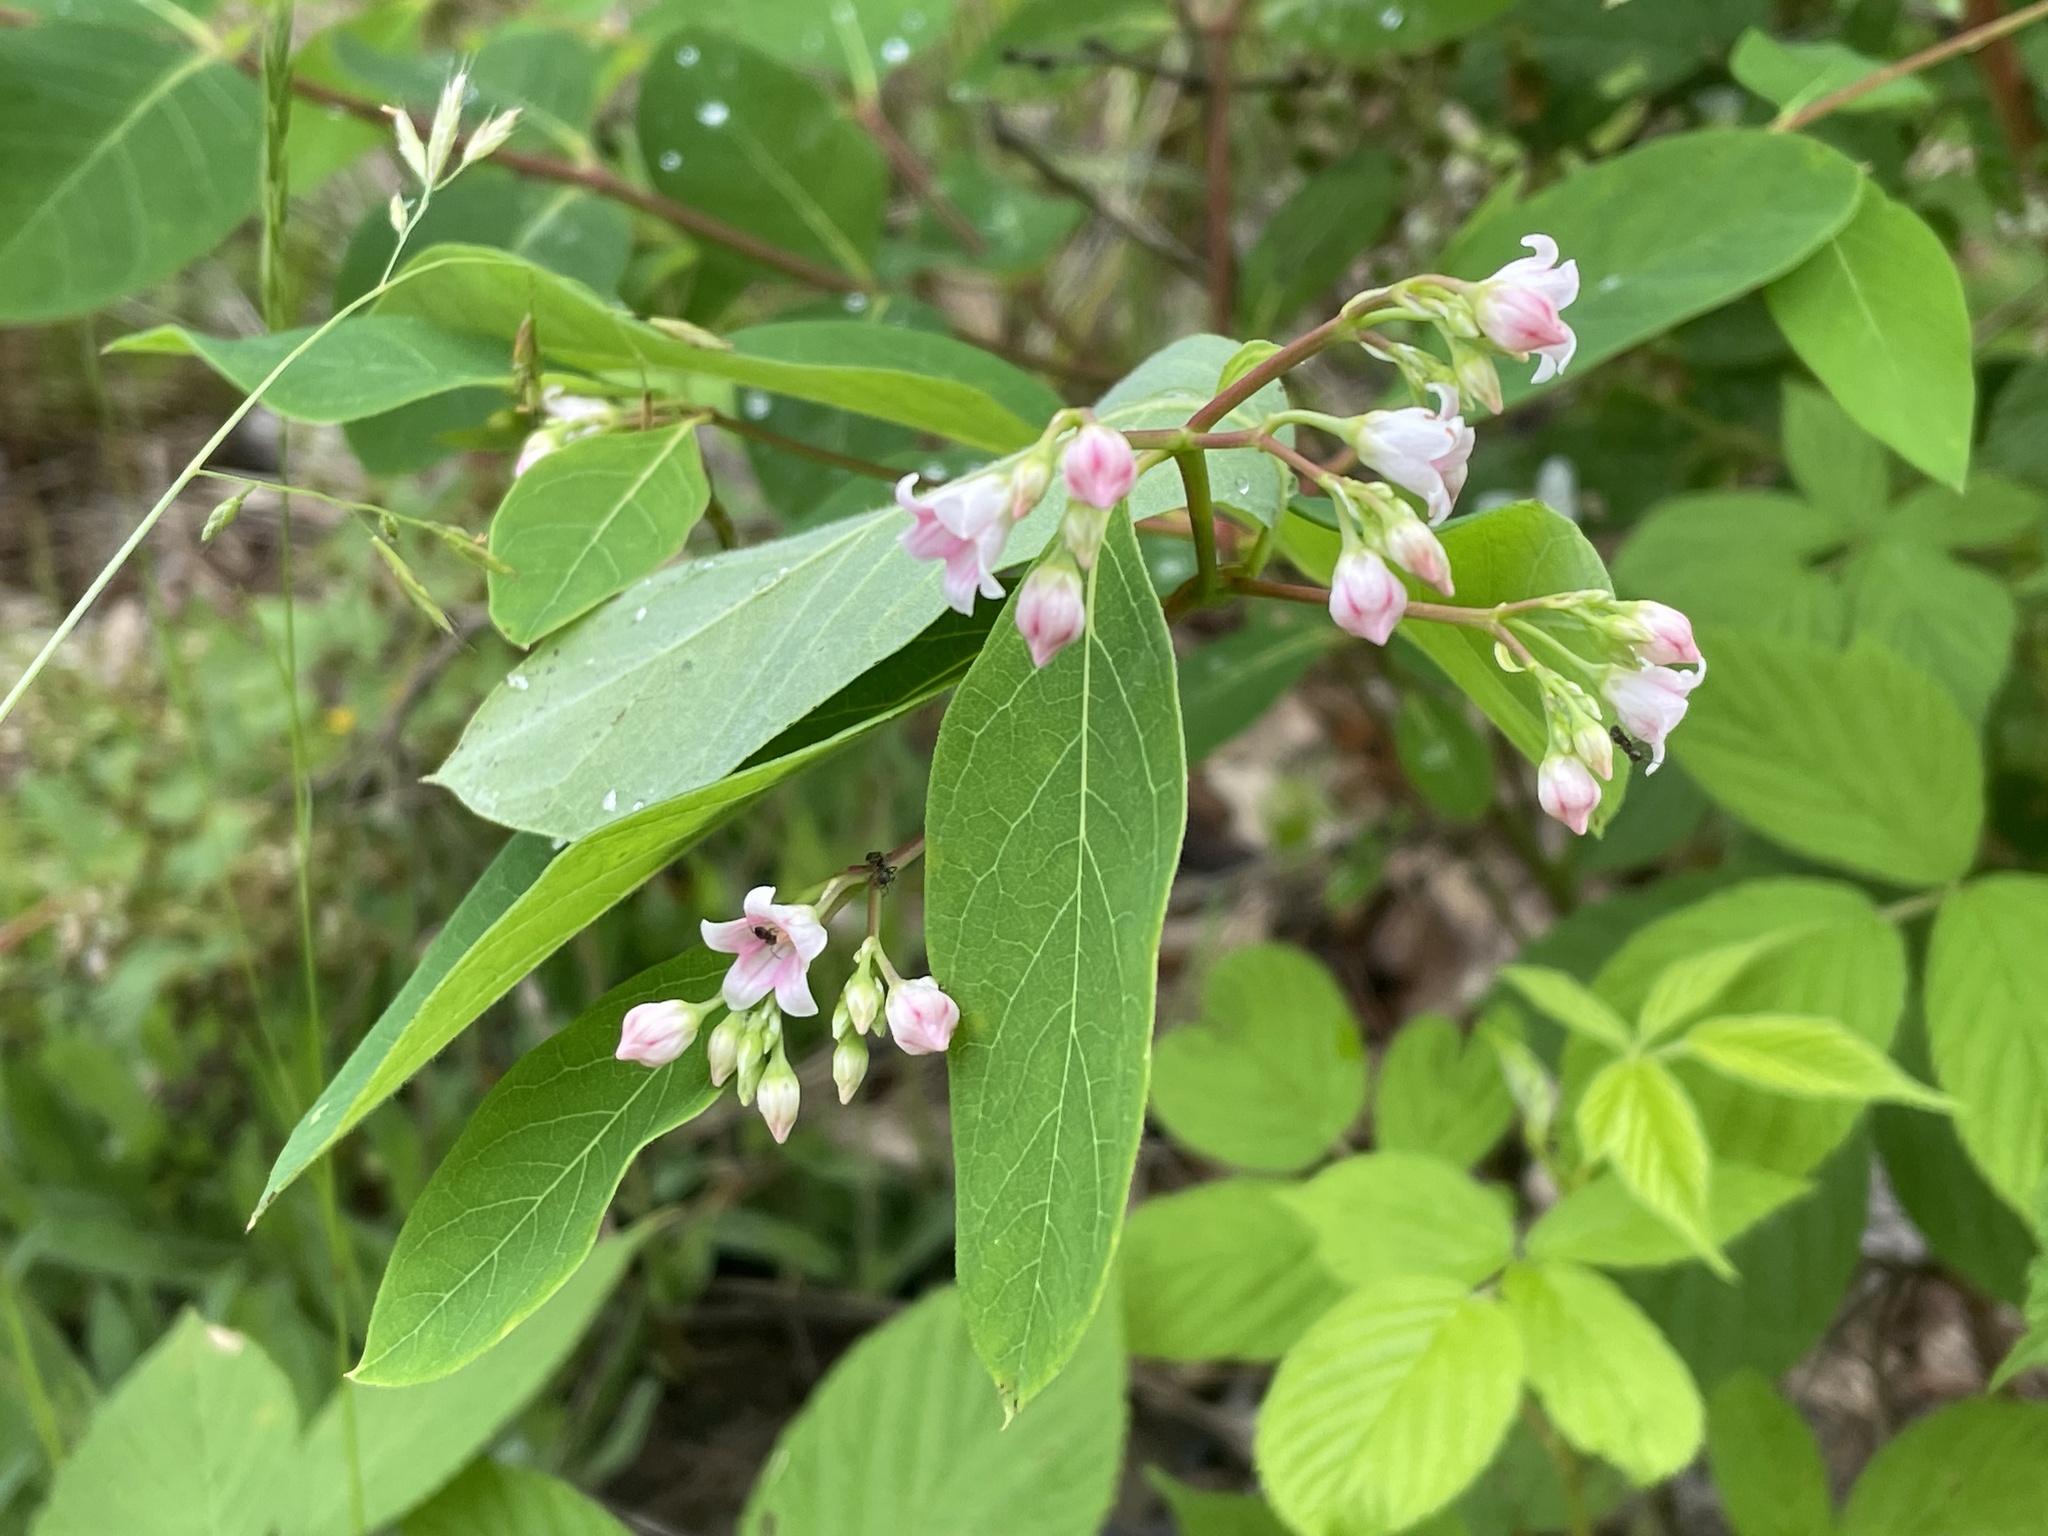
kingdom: Plantae
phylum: Tracheophyta
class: Magnoliopsida
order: Gentianales
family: Apocynaceae
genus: Apocynum
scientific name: Apocynum androsaemifolium
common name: Spreading dogbane
